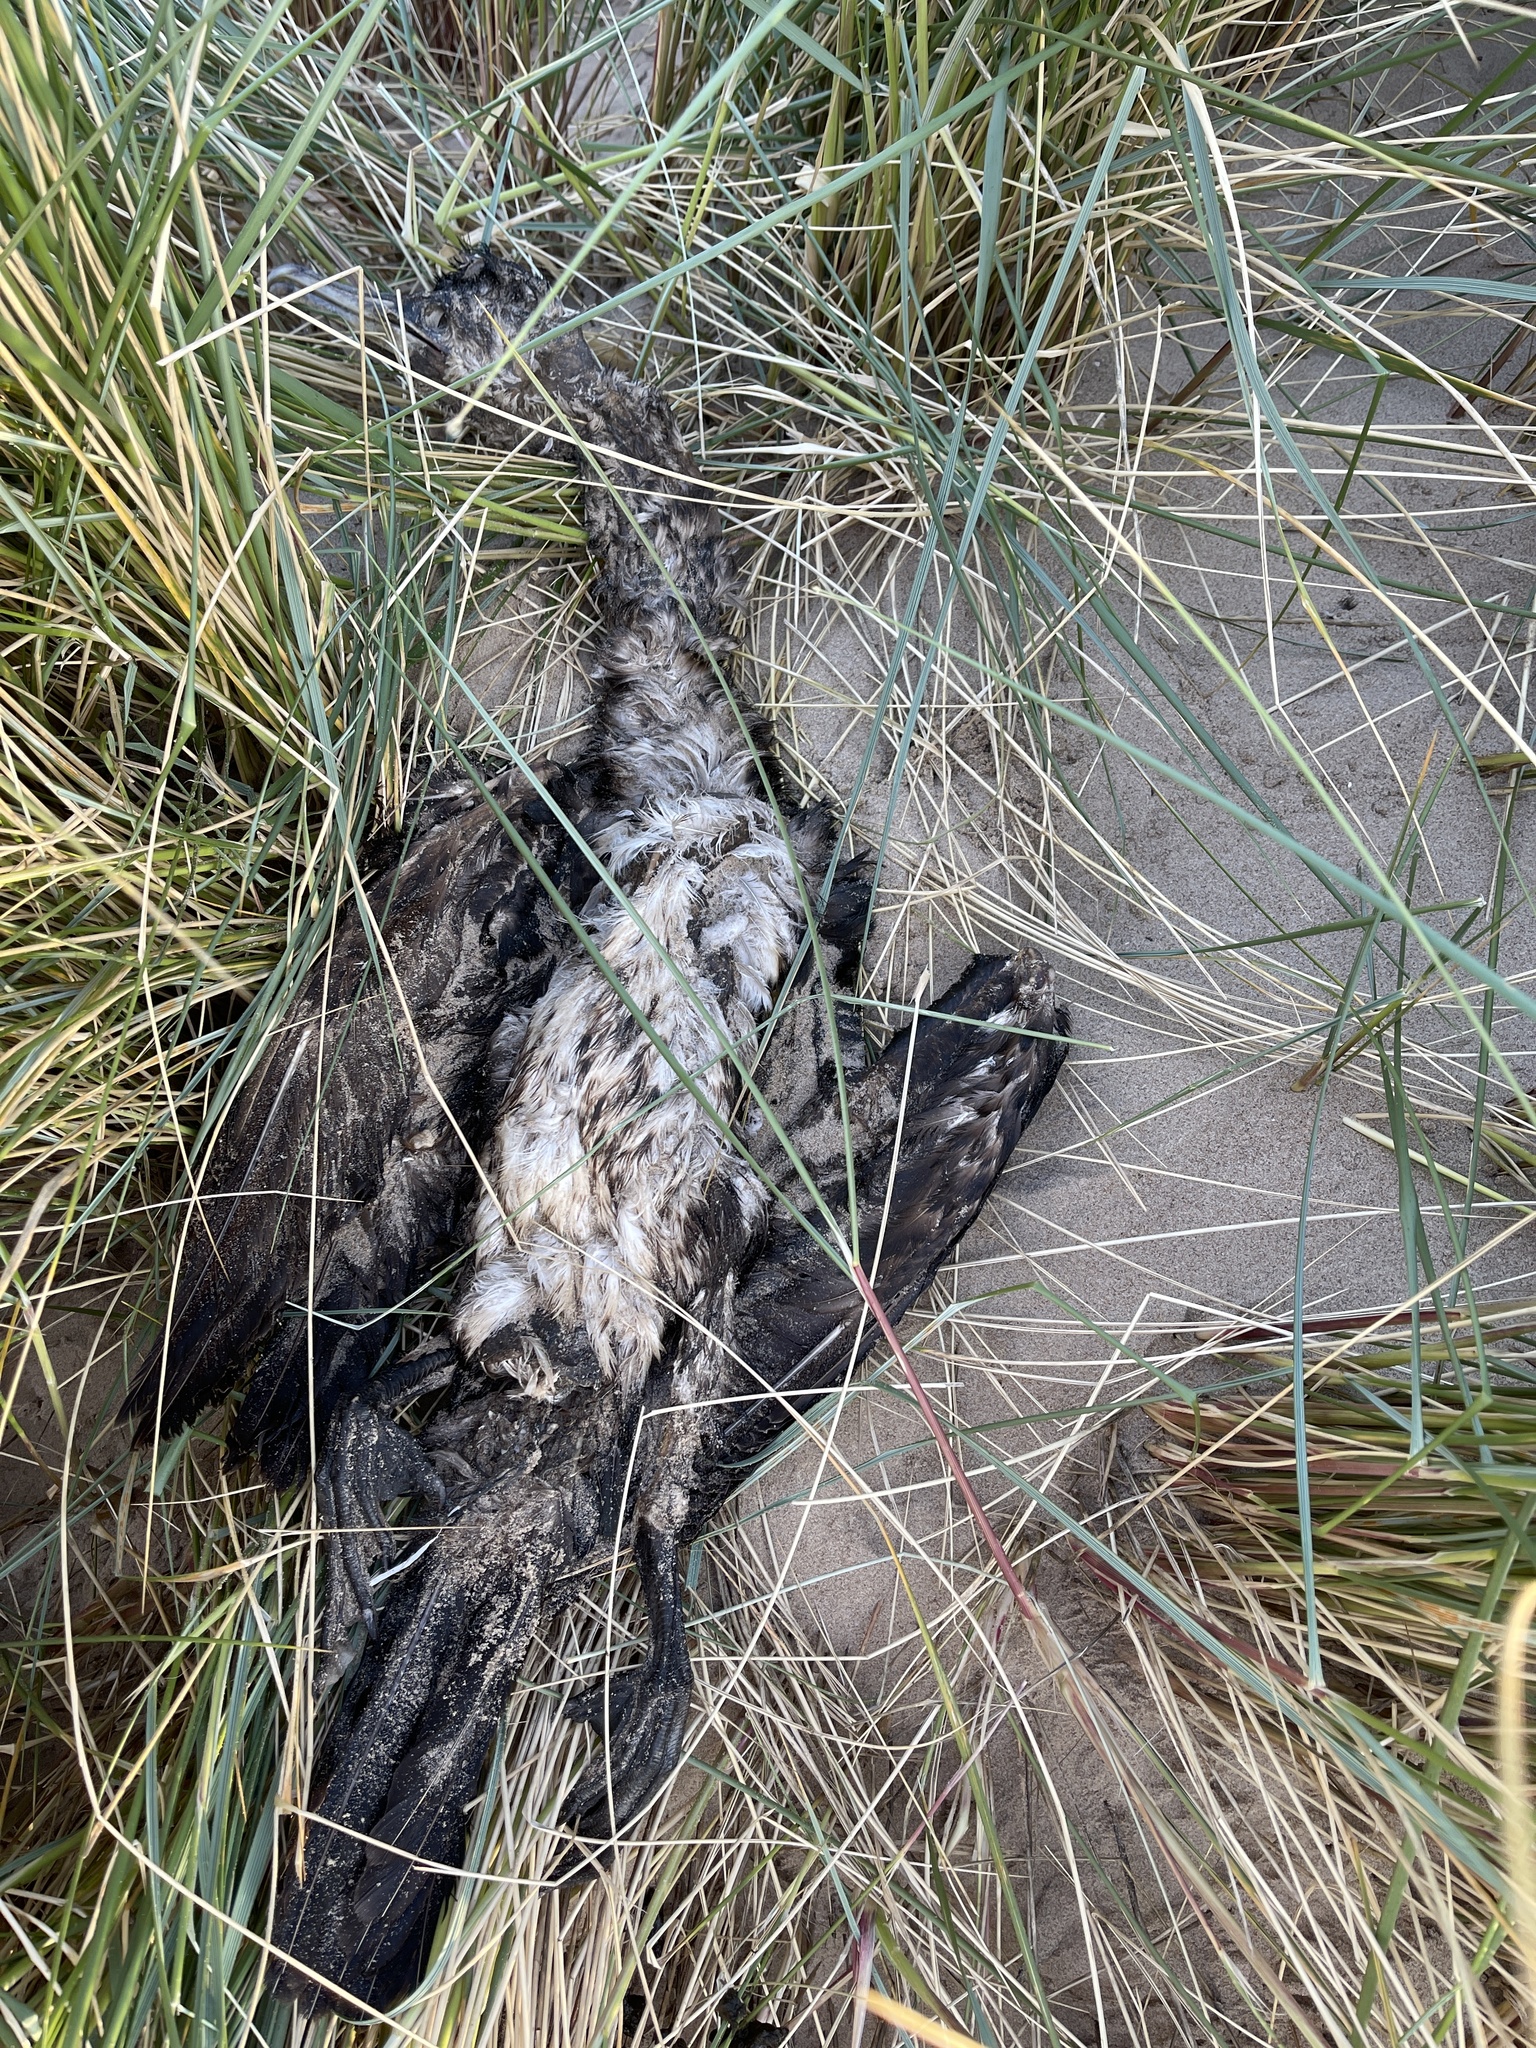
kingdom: Animalia
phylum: Chordata
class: Aves
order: Suliformes
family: Phalacrocoracidae
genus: Phalacrocorax
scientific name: Phalacrocorax carbo
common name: Great cormorant
